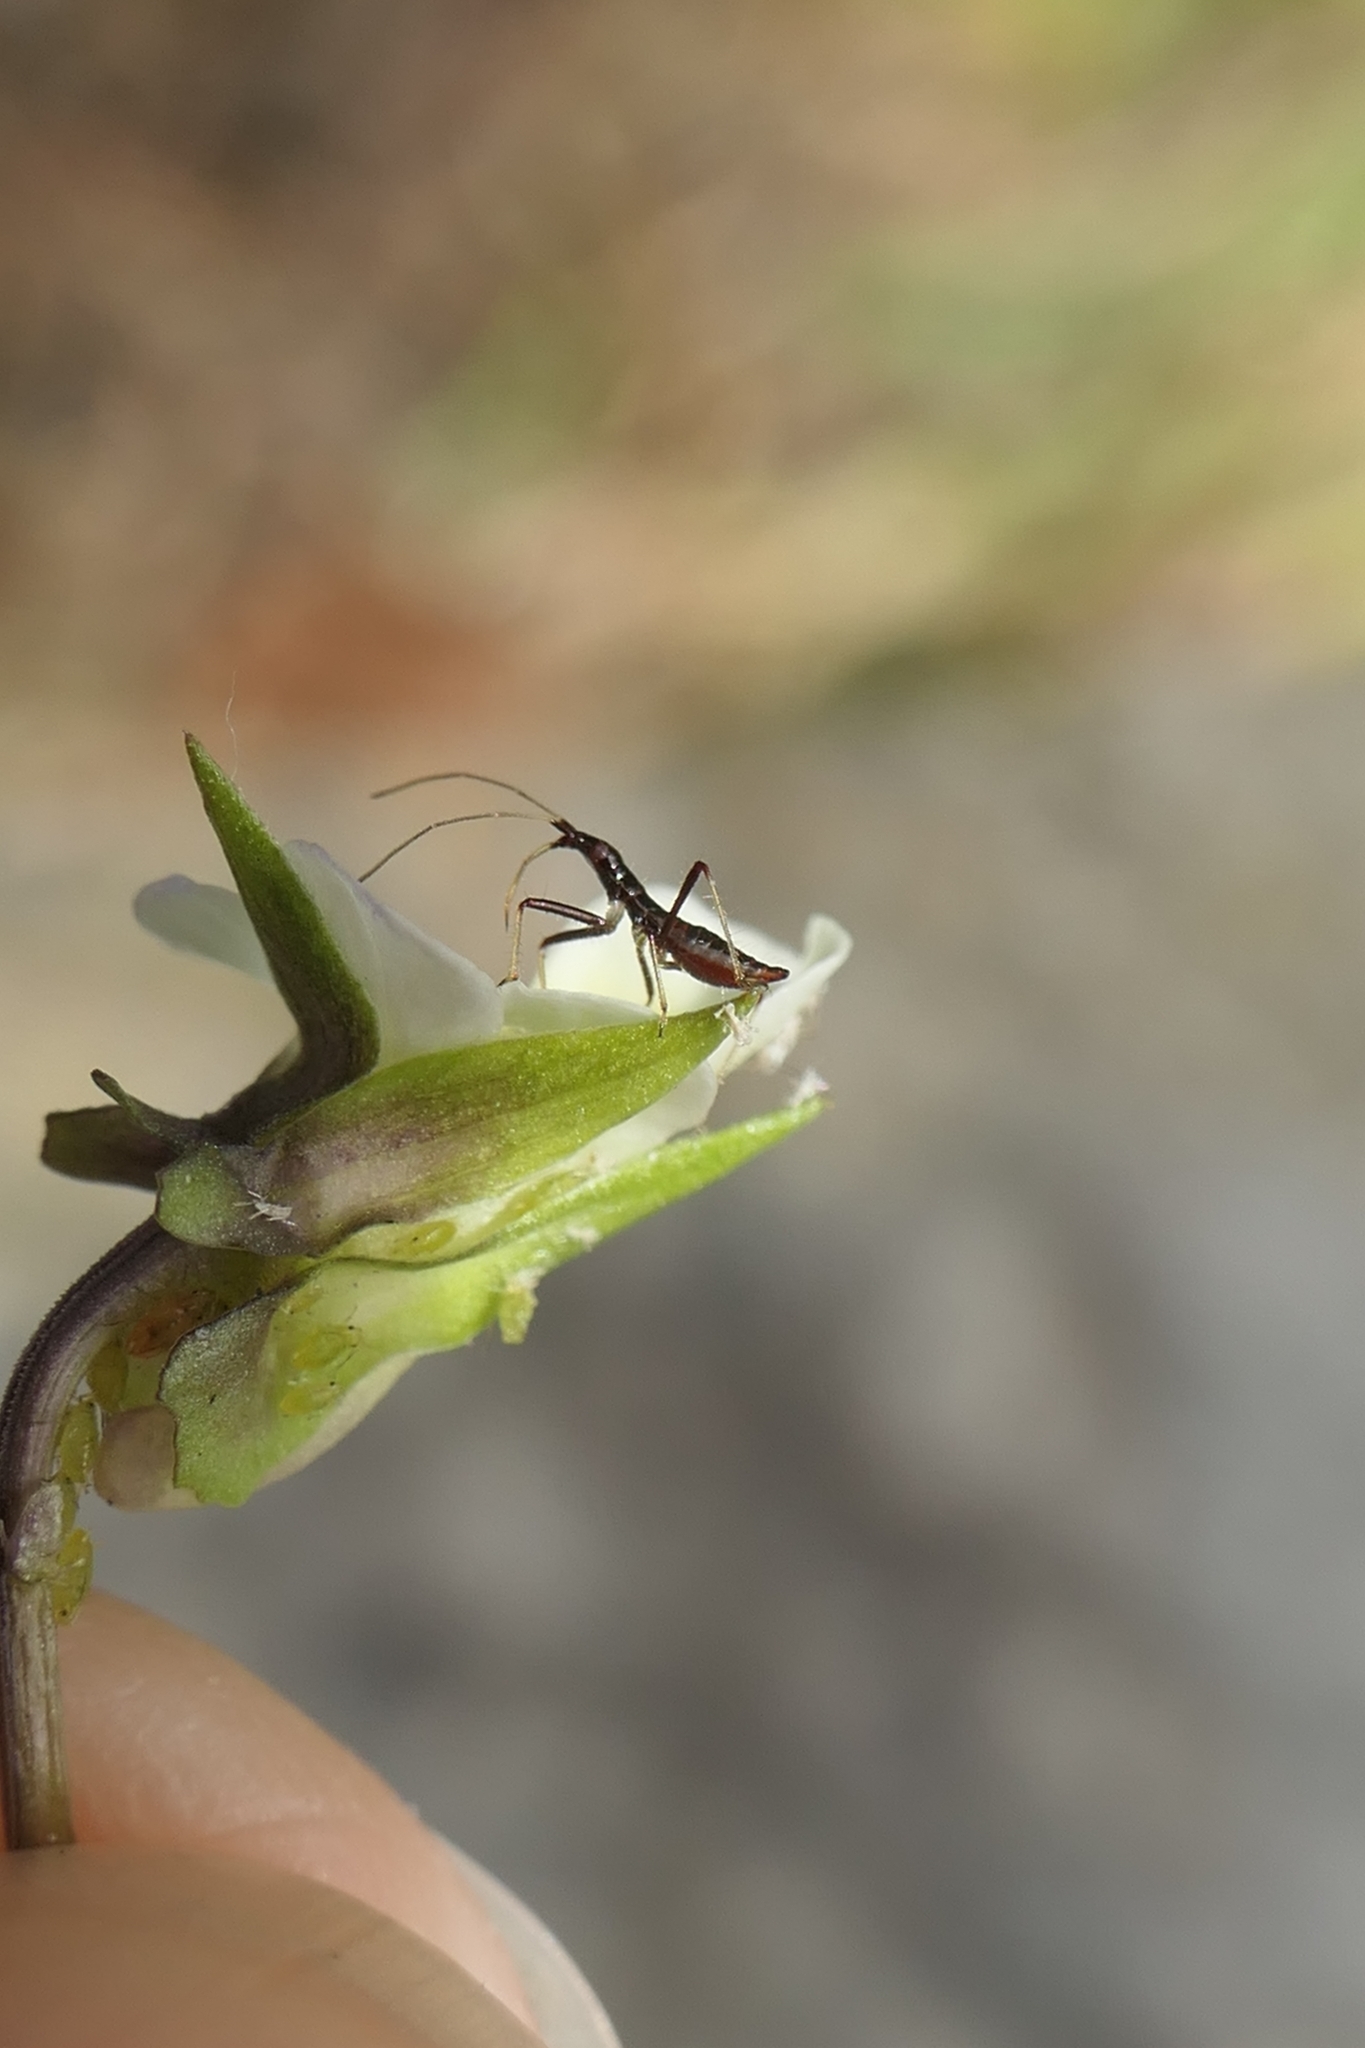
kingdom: Animalia
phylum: Arthropoda
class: Insecta
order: Hemiptera
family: Nabidae
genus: Nabis
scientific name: Nabis
